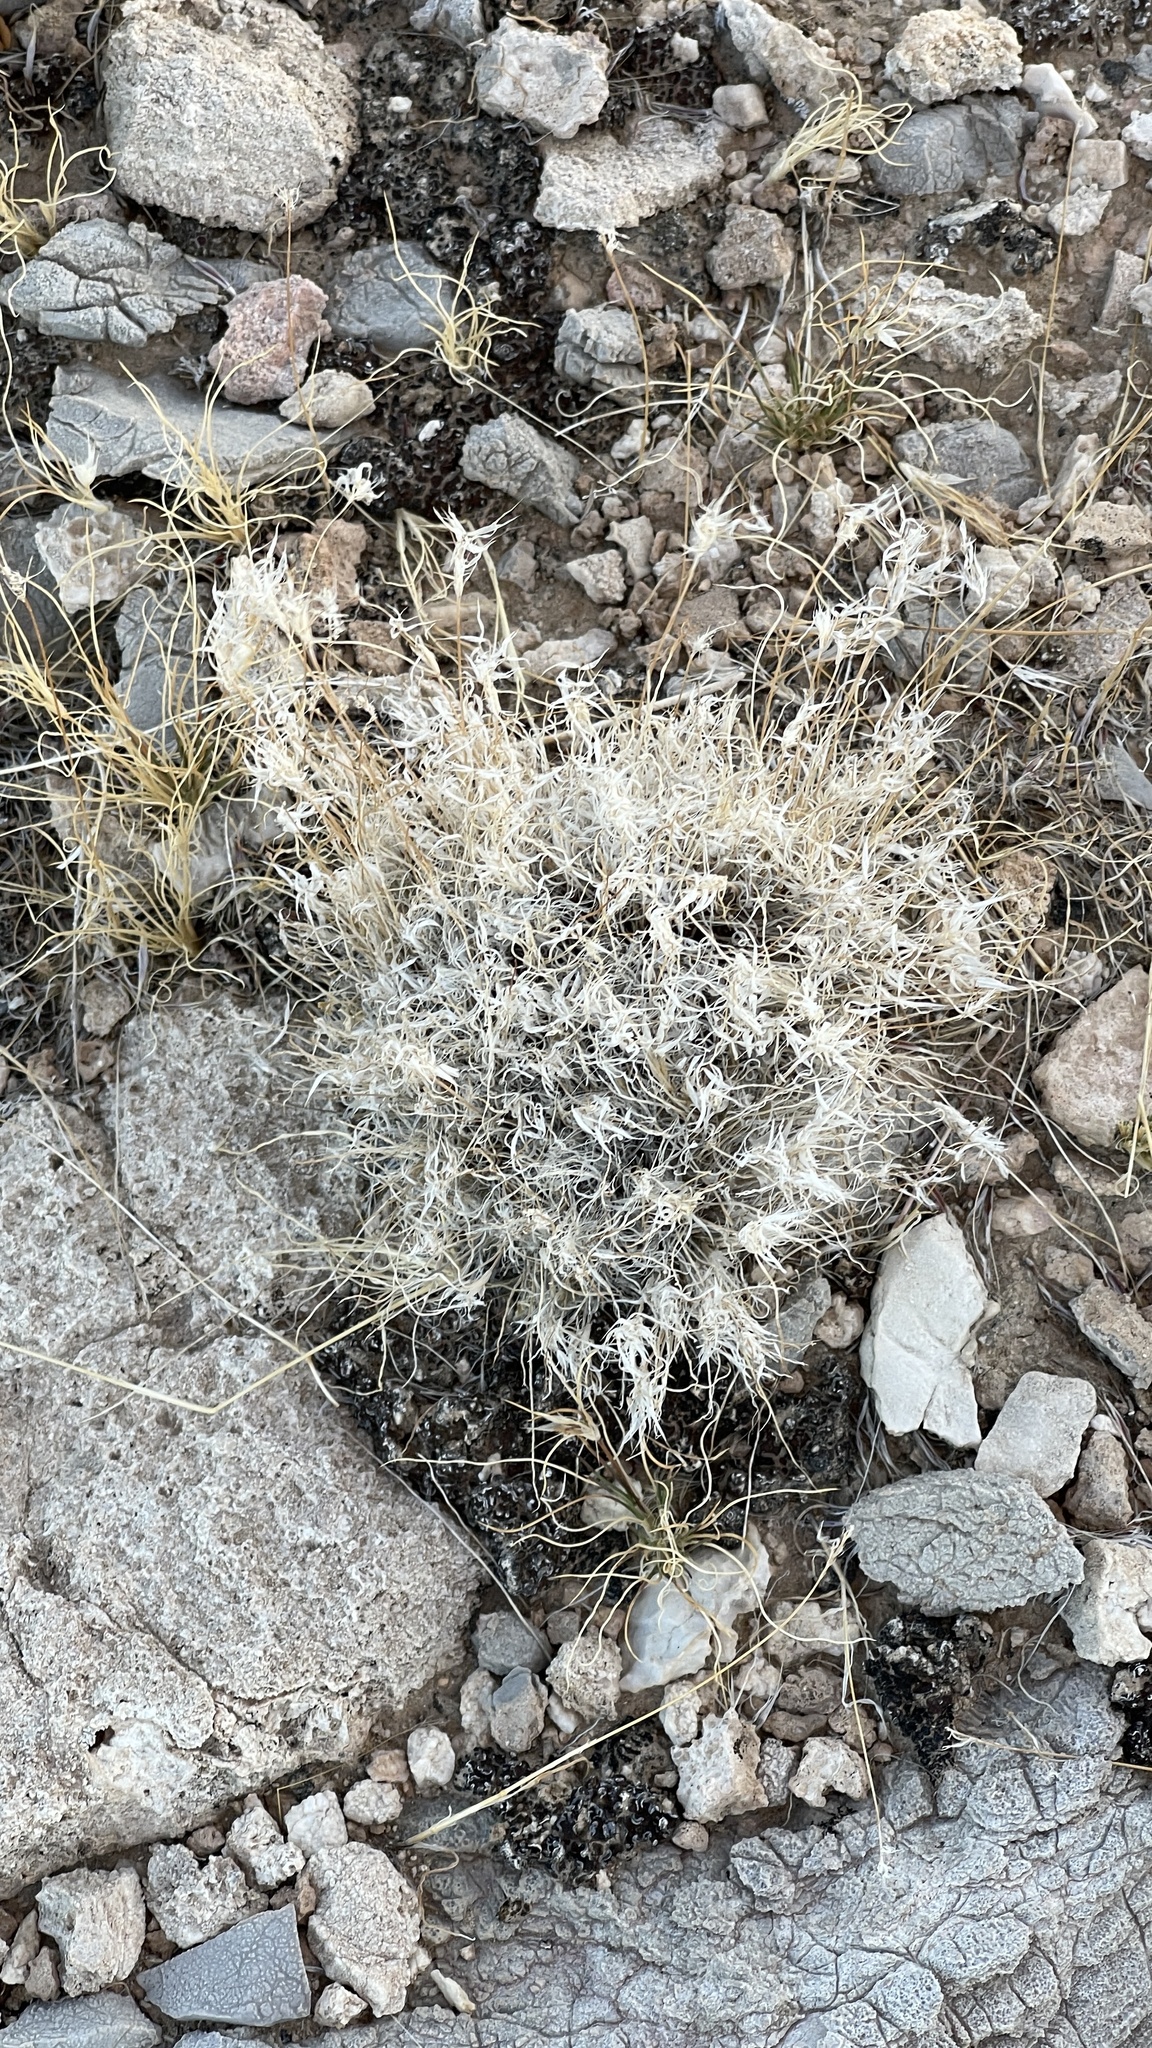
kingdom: Plantae
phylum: Tracheophyta
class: Liliopsida
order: Poales
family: Poaceae
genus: Dasyochloa
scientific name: Dasyochloa pulchella
